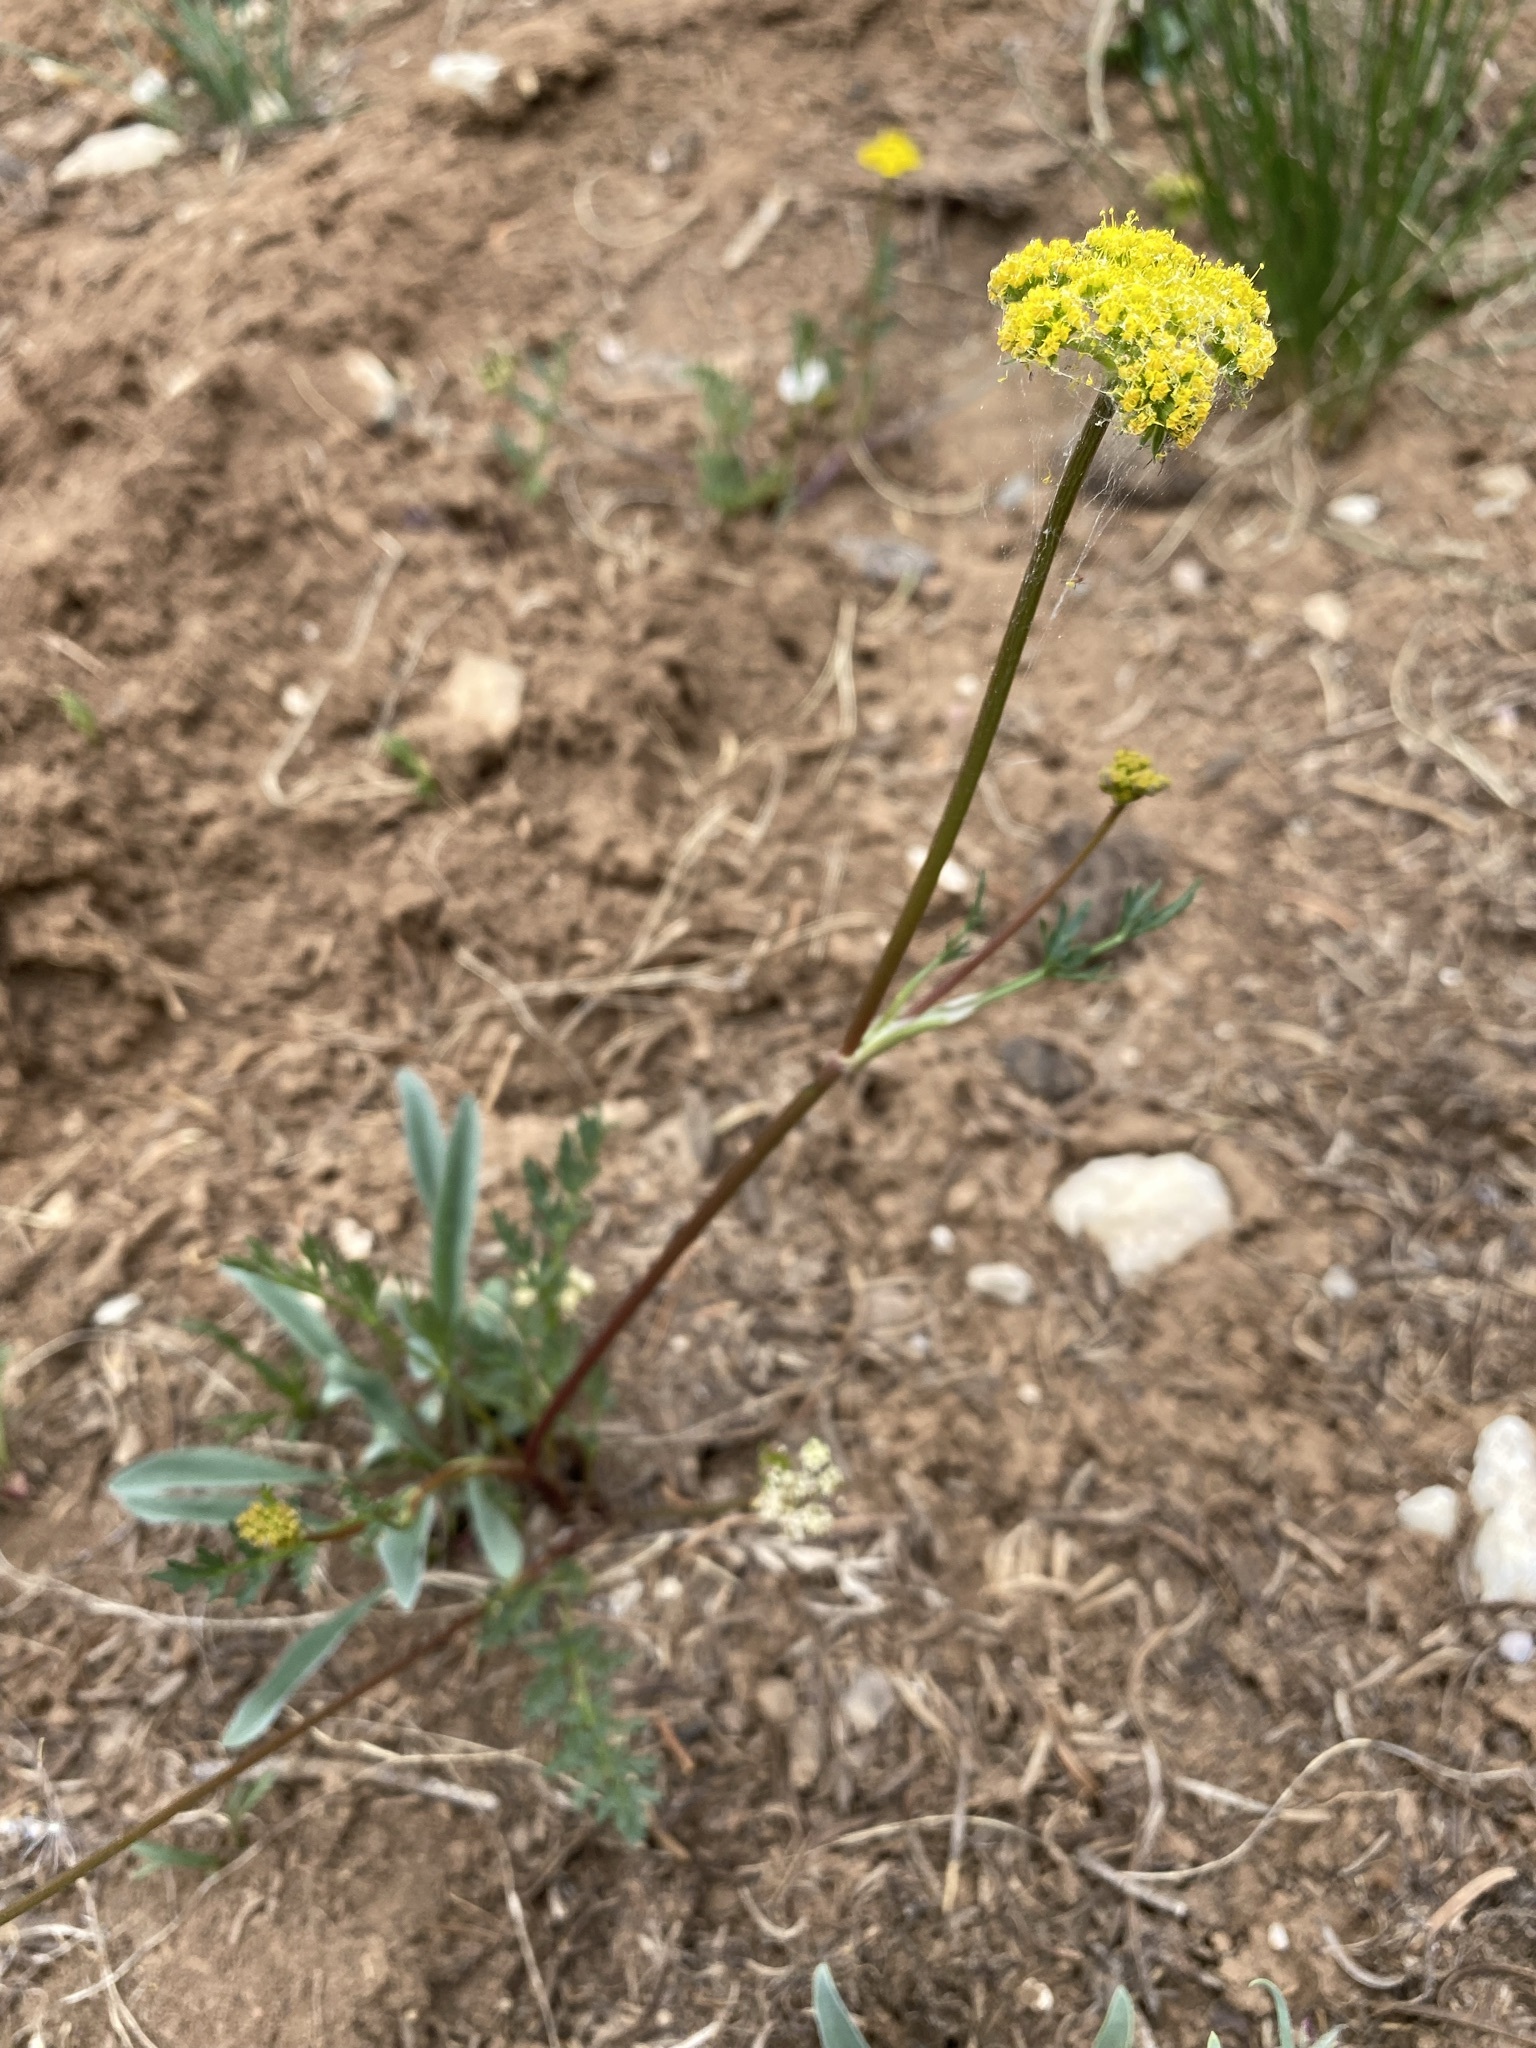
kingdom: Plantae
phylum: Tracheophyta
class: Magnoliopsida
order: Apiales
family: Apiaceae
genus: Cymopterus
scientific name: Cymopterus lemmonii
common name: Lemmon's spring-parsley
